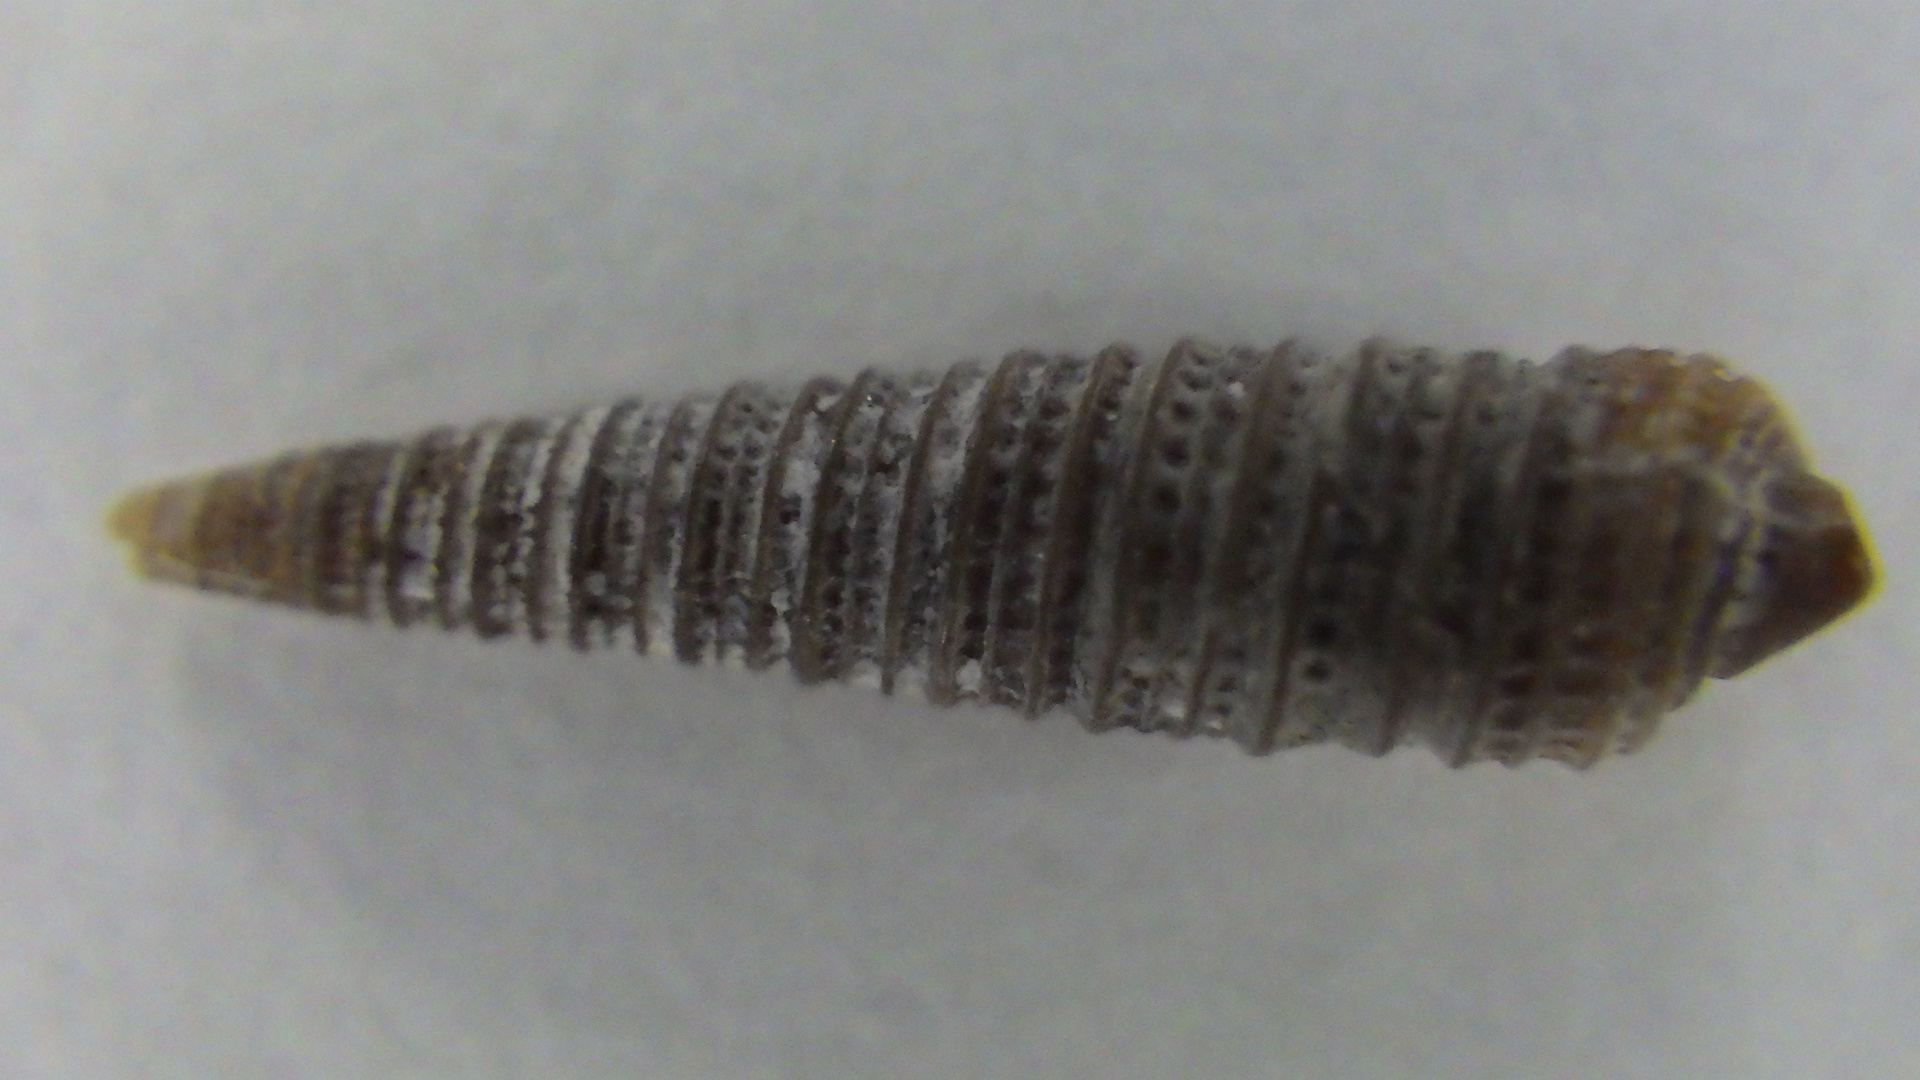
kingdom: Animalia
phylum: Mollusca
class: Gastropoda
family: Triphoridae
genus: Viriola
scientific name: Viriola tricincta
